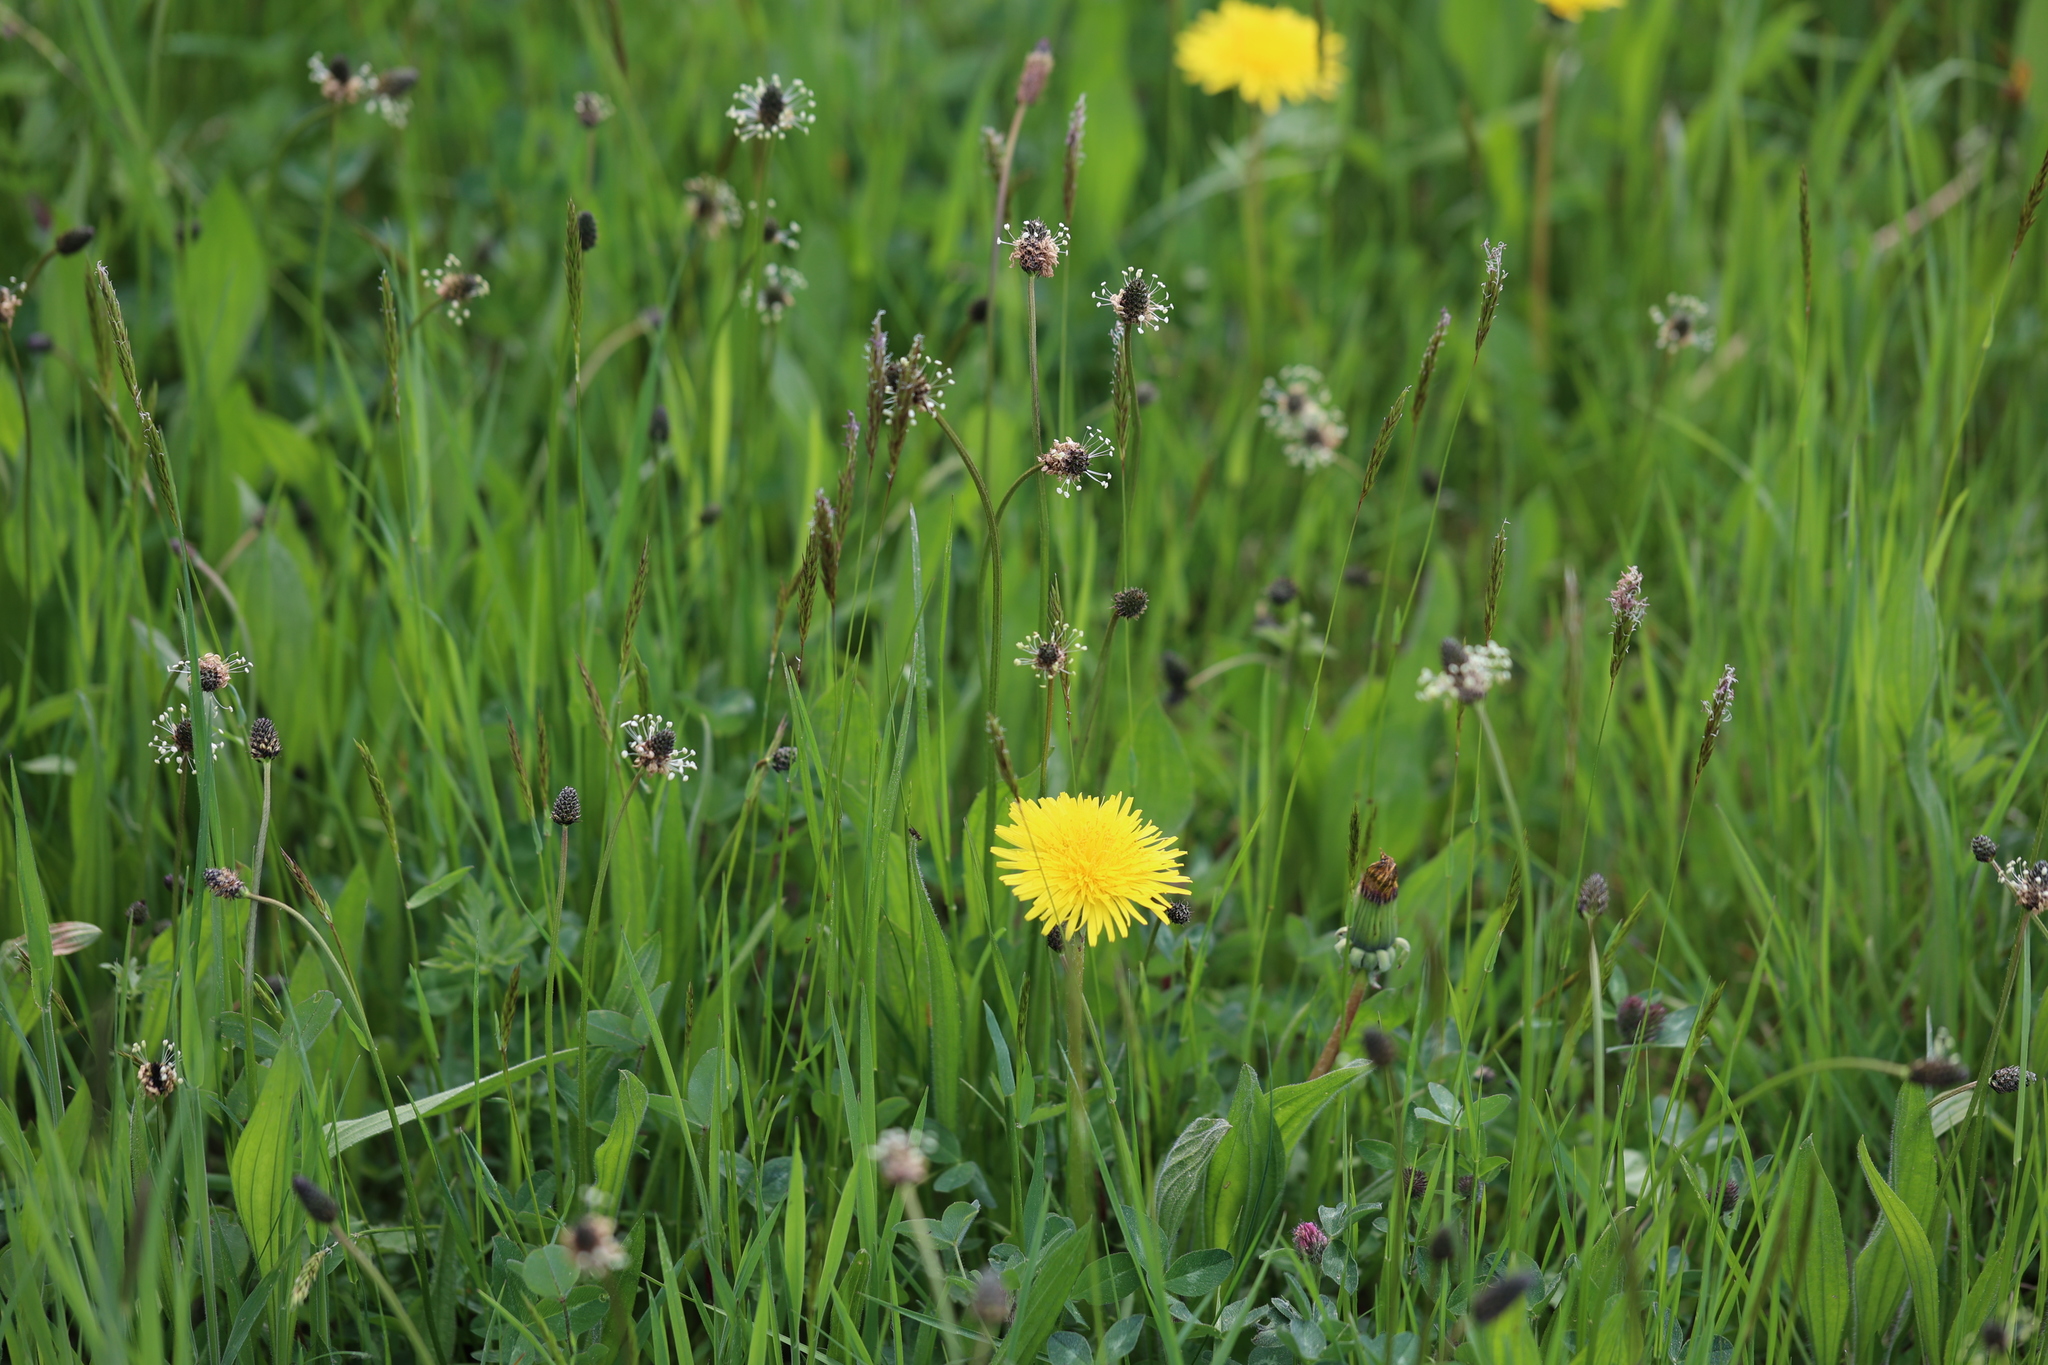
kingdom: Plantae
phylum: Tracheophyta
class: Magnoliopsida
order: Lamiales
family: Plantaginaceae
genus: Plantago
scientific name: Plantago lanceolata
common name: Ribwort plantain
